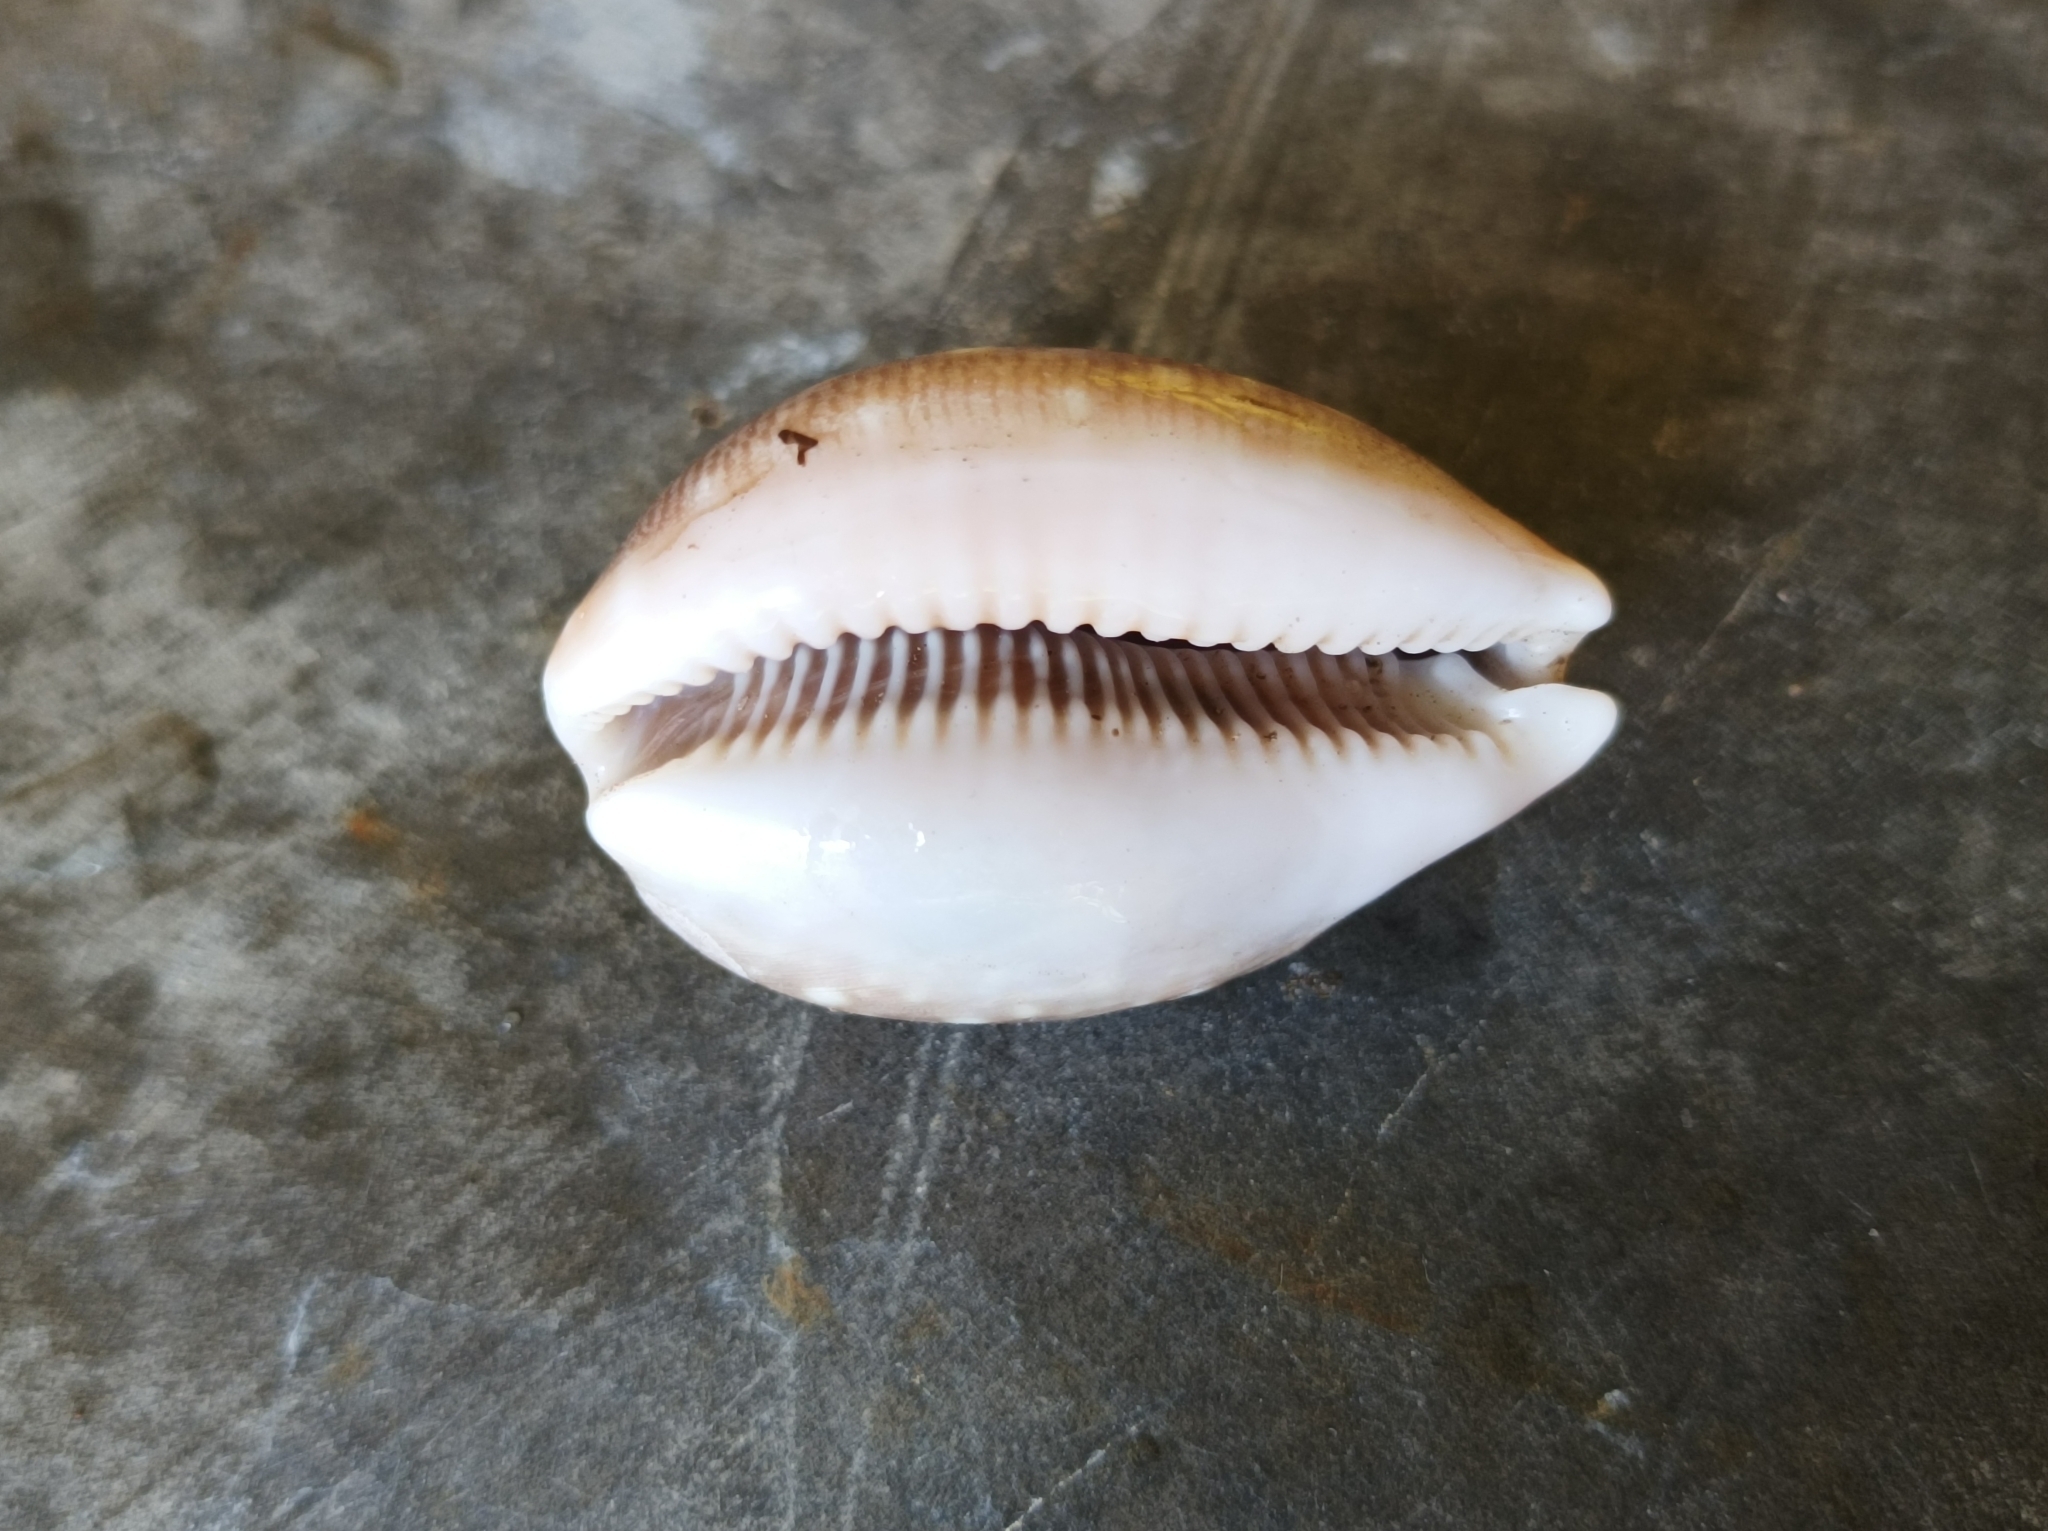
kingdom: Animalia
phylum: Mollusca
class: Gastropoda
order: Littorinimorpha
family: Cypraeidae
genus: Lyncina
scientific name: Lyncina vitellus
